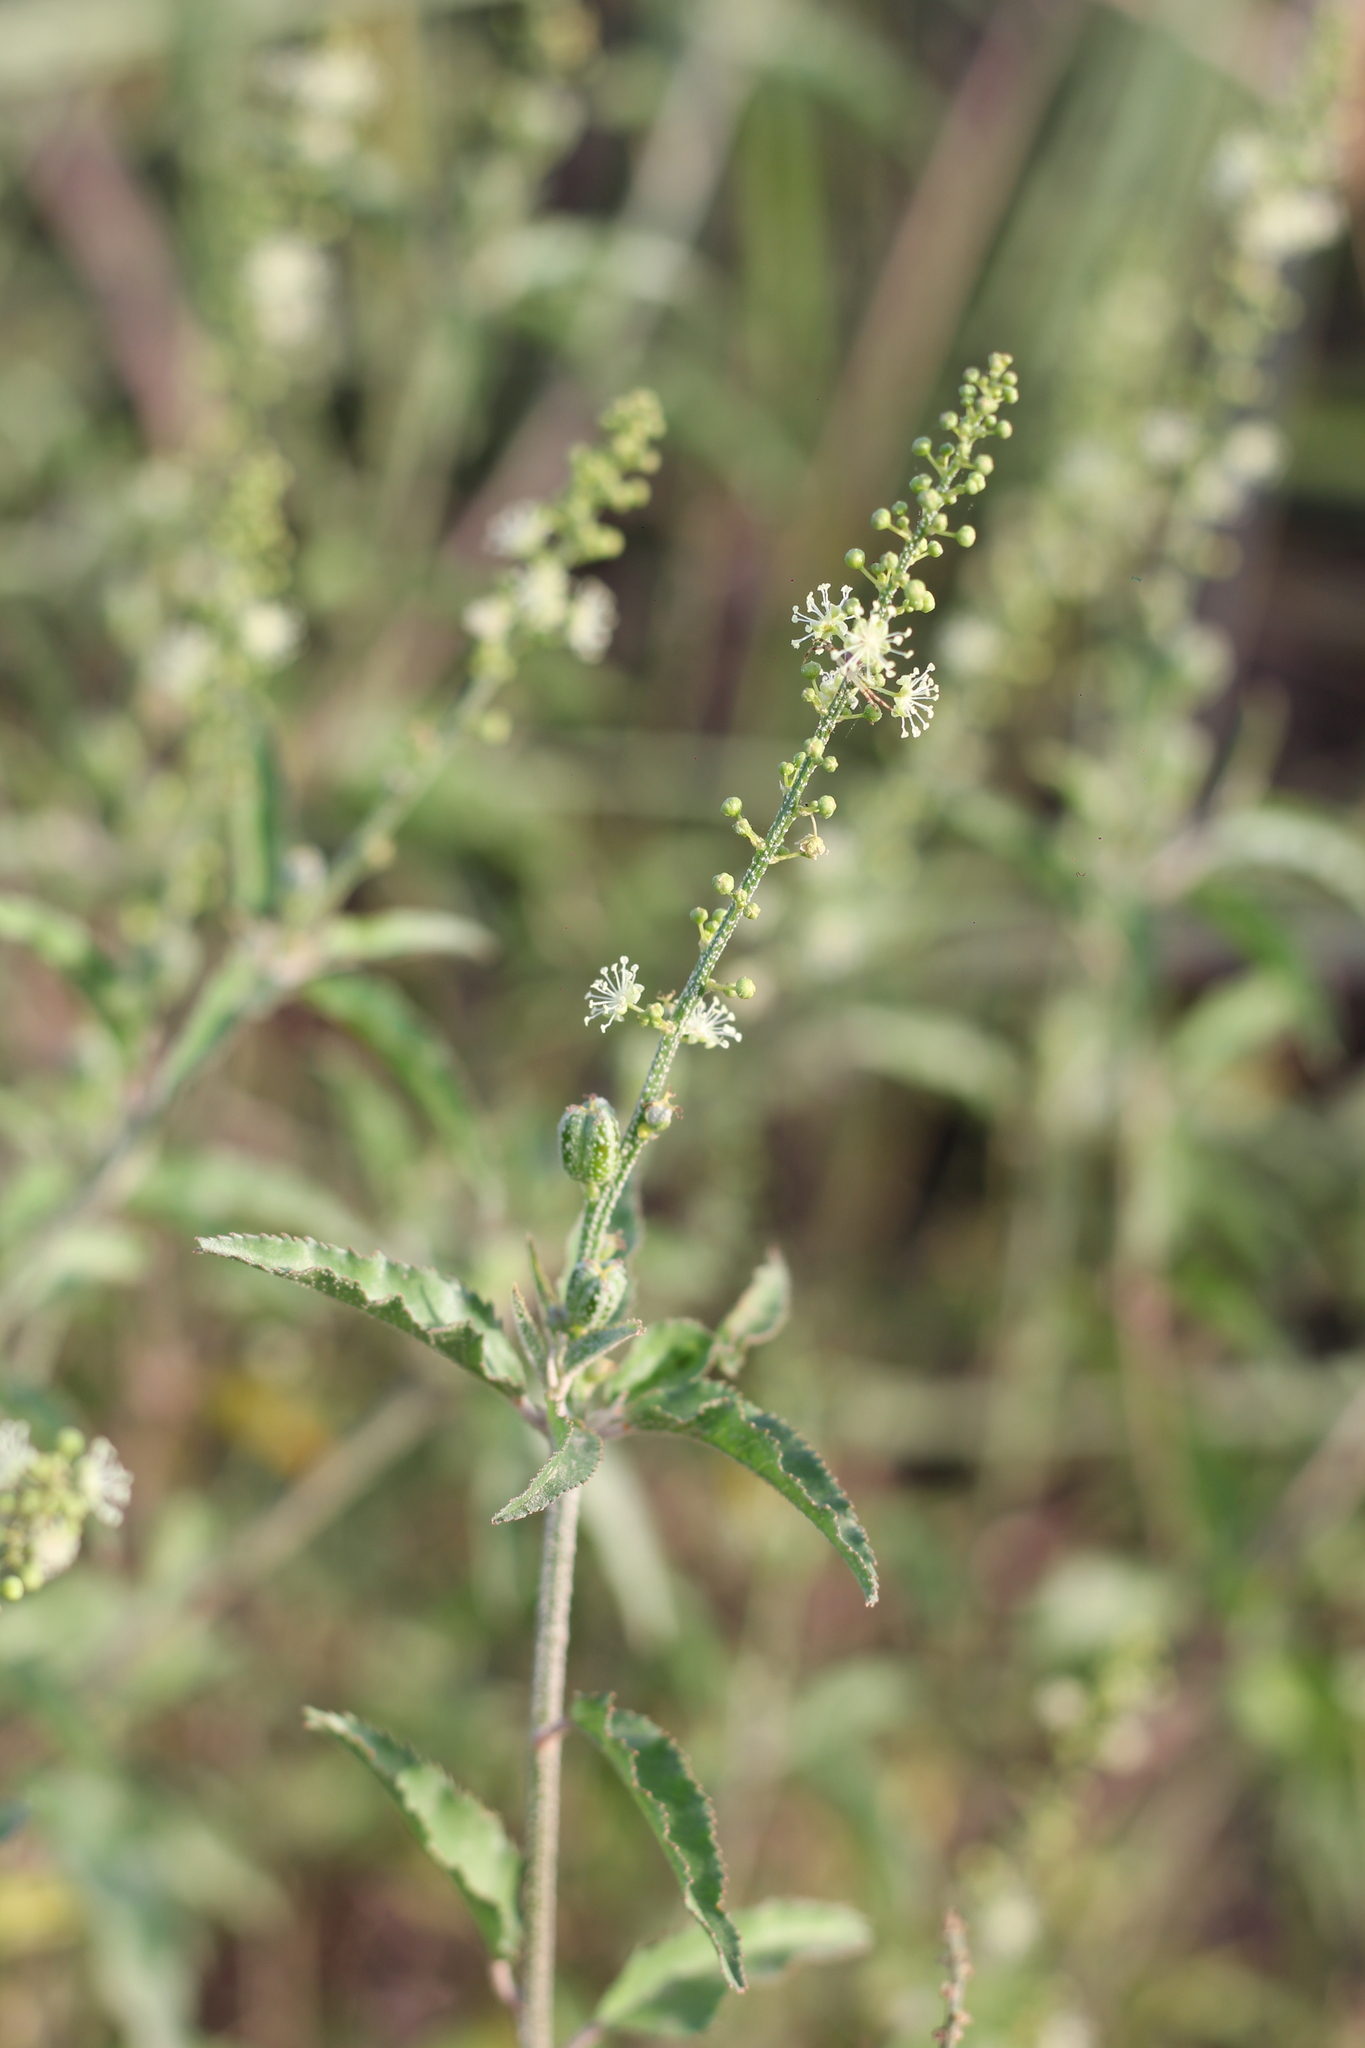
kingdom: Plantae
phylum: Tracheophyta
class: Magnoliopsida
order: Malpighiales
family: Euphorbiaceae
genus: Croton
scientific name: Croton bonplandianus
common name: Bonpland's croton
